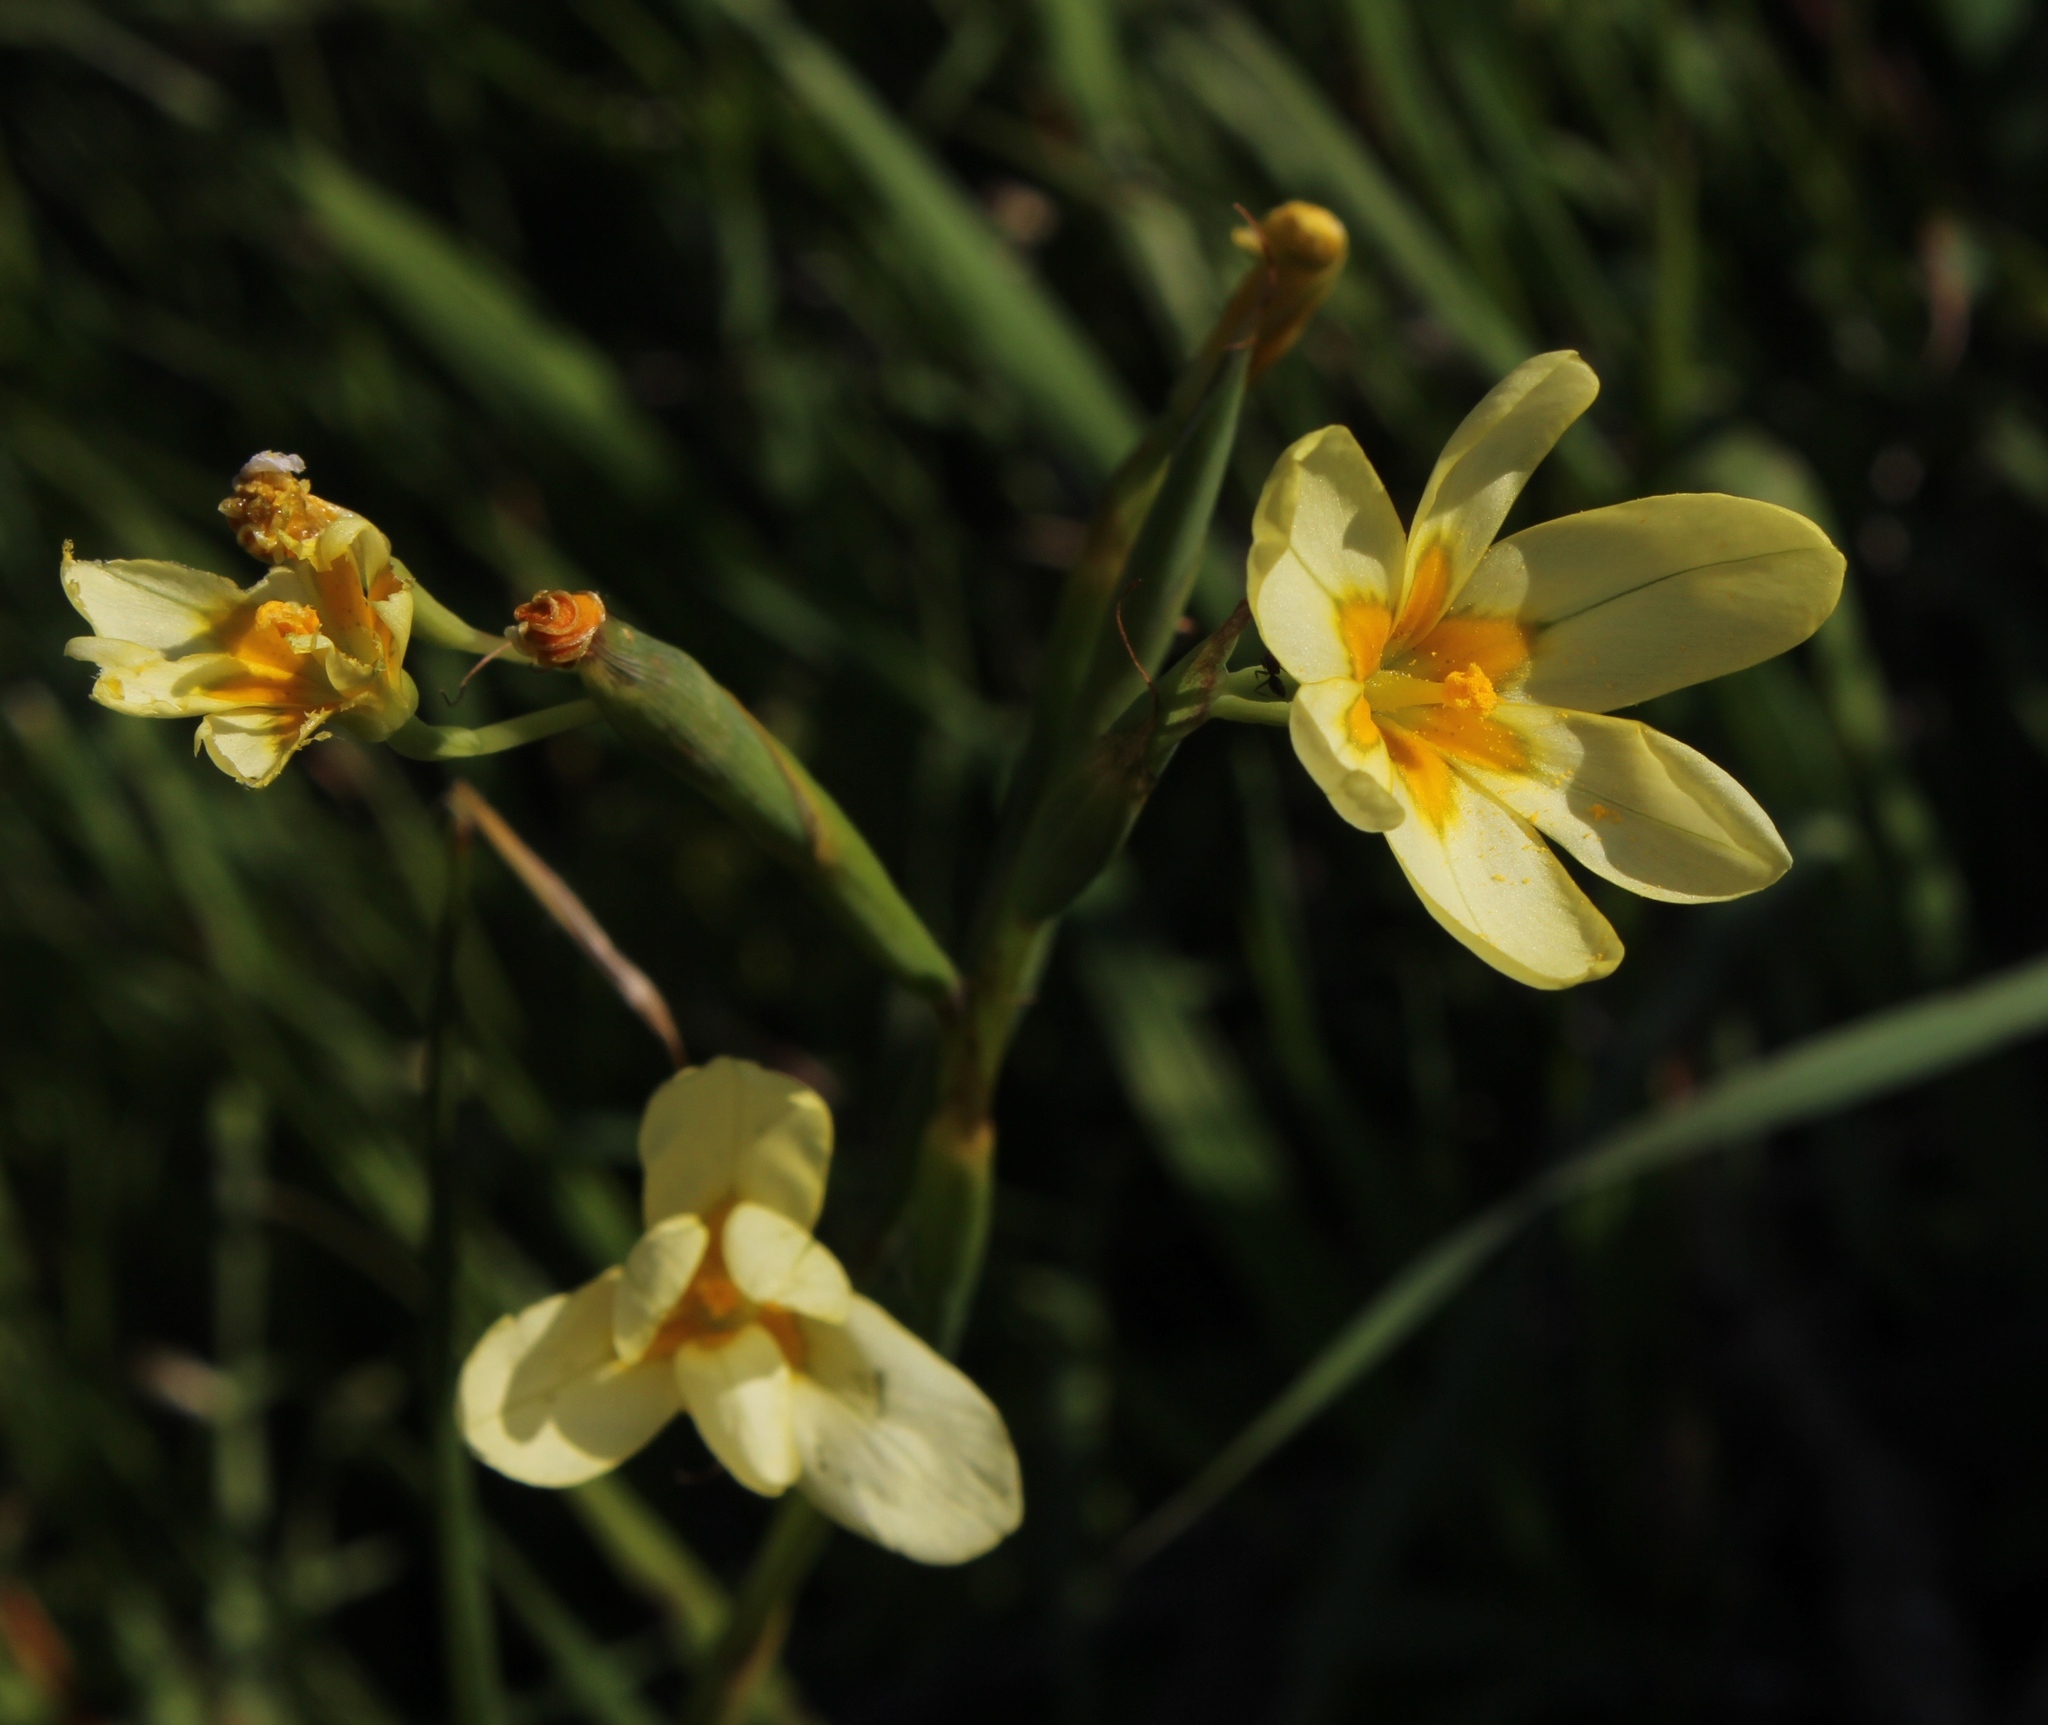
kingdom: Plantae
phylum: Tracheophyta
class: Liliopsida
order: Asparagales
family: Iridaceae
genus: Moraea
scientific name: Moraea miniata
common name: Two-leaf cape-tulip
